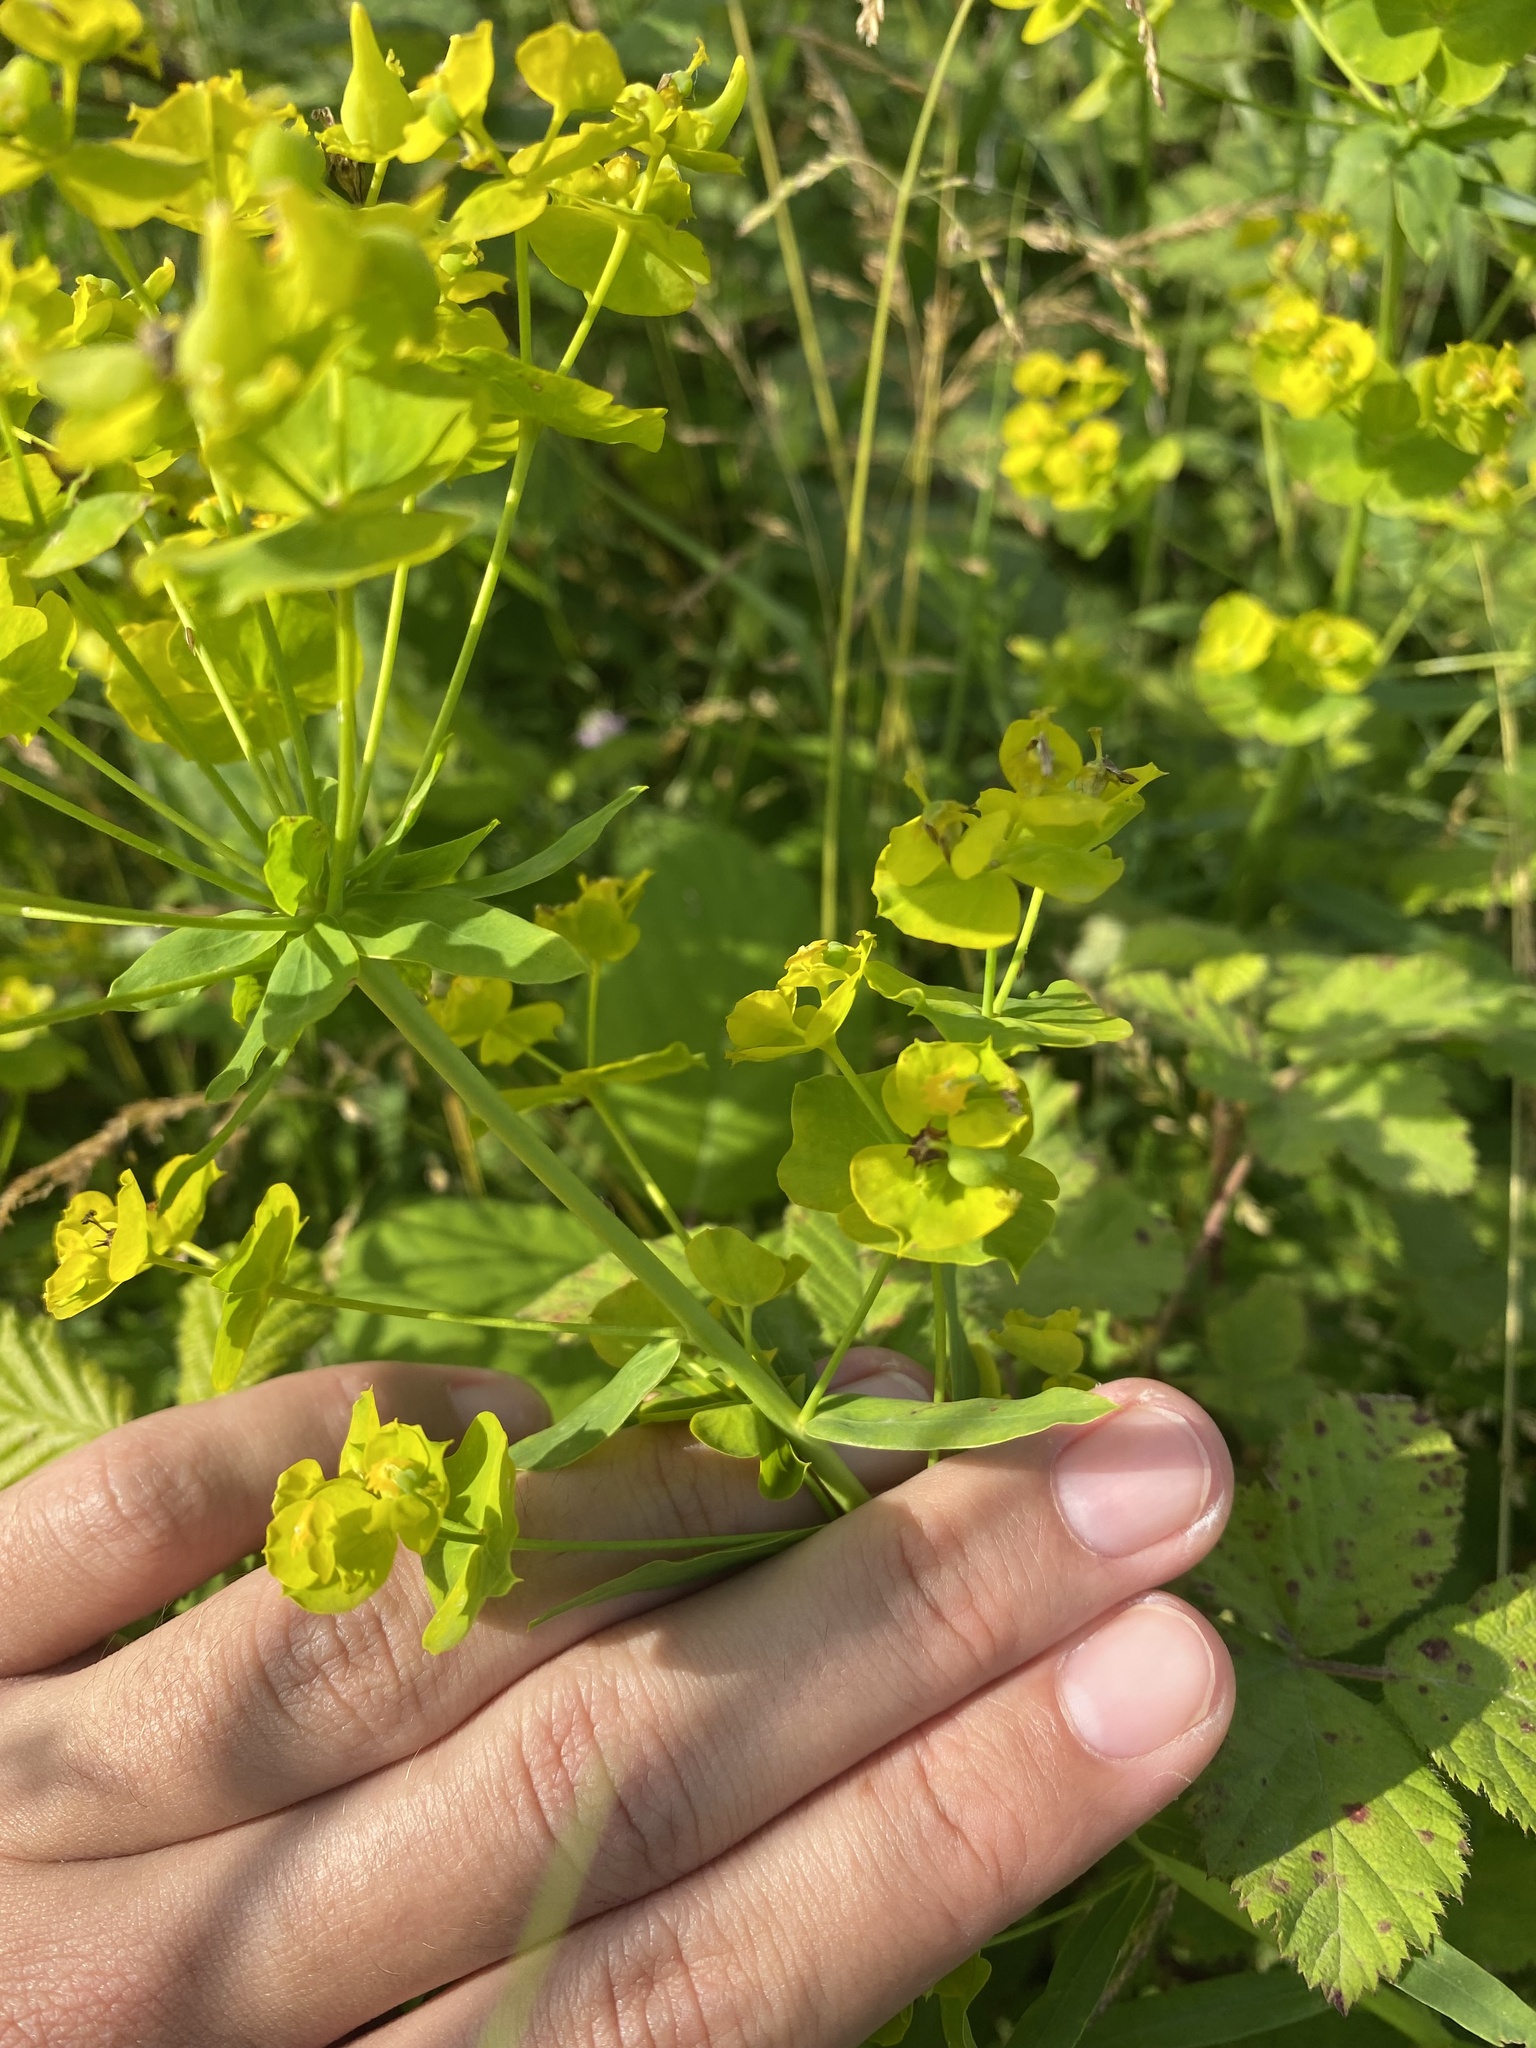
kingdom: Plantae
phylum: Tracheophyta
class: Magnoliopsida
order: Malpighiales
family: Euphorbiaceae
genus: Euphorbia
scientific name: Euphorbia virgata
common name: Leafy spurge
